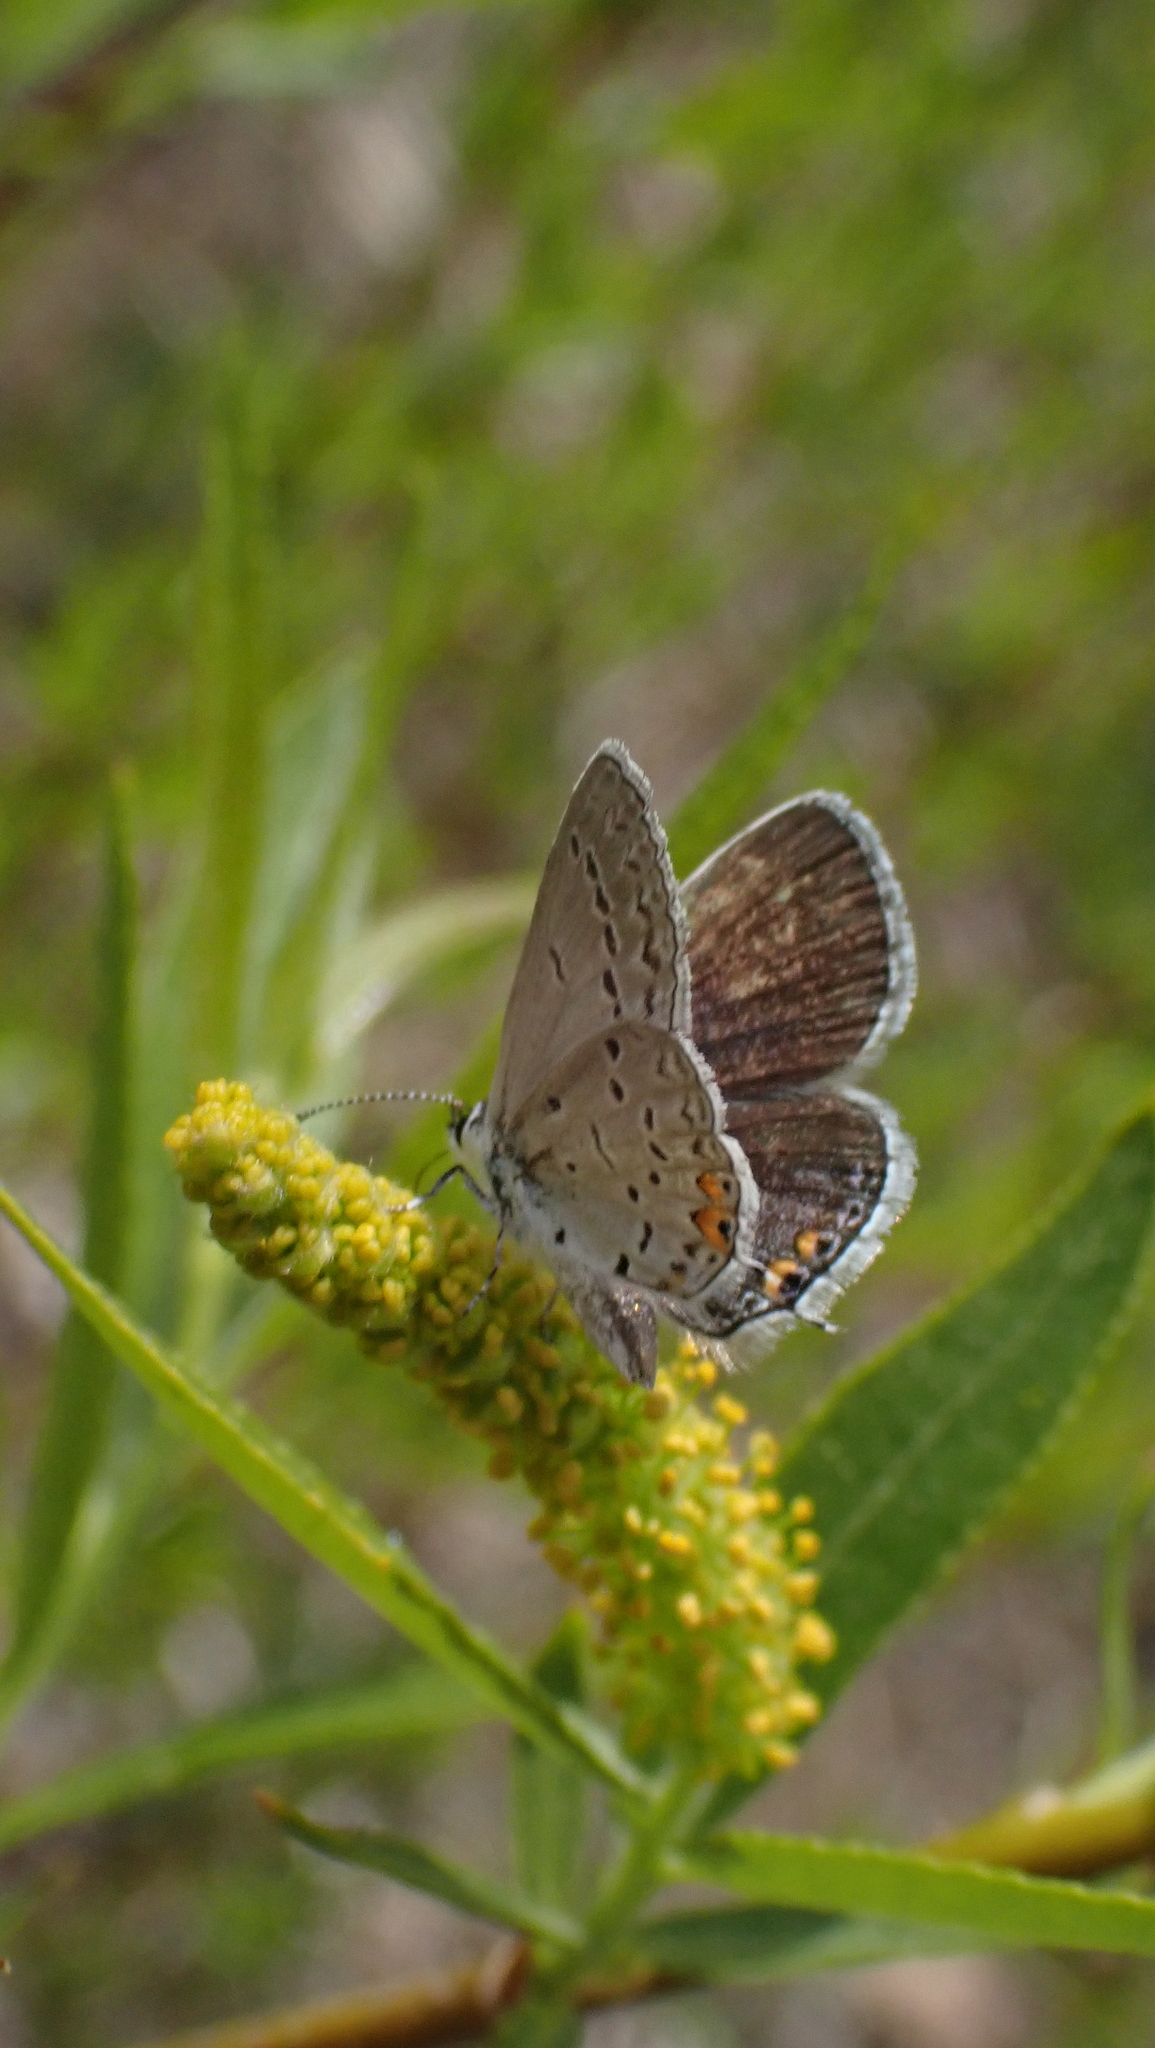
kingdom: Animalia
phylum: Arthropoda
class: Insecta
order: Lepidoptera
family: Lycaenidae
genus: Elkalyce
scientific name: Elkalyce comyntas
